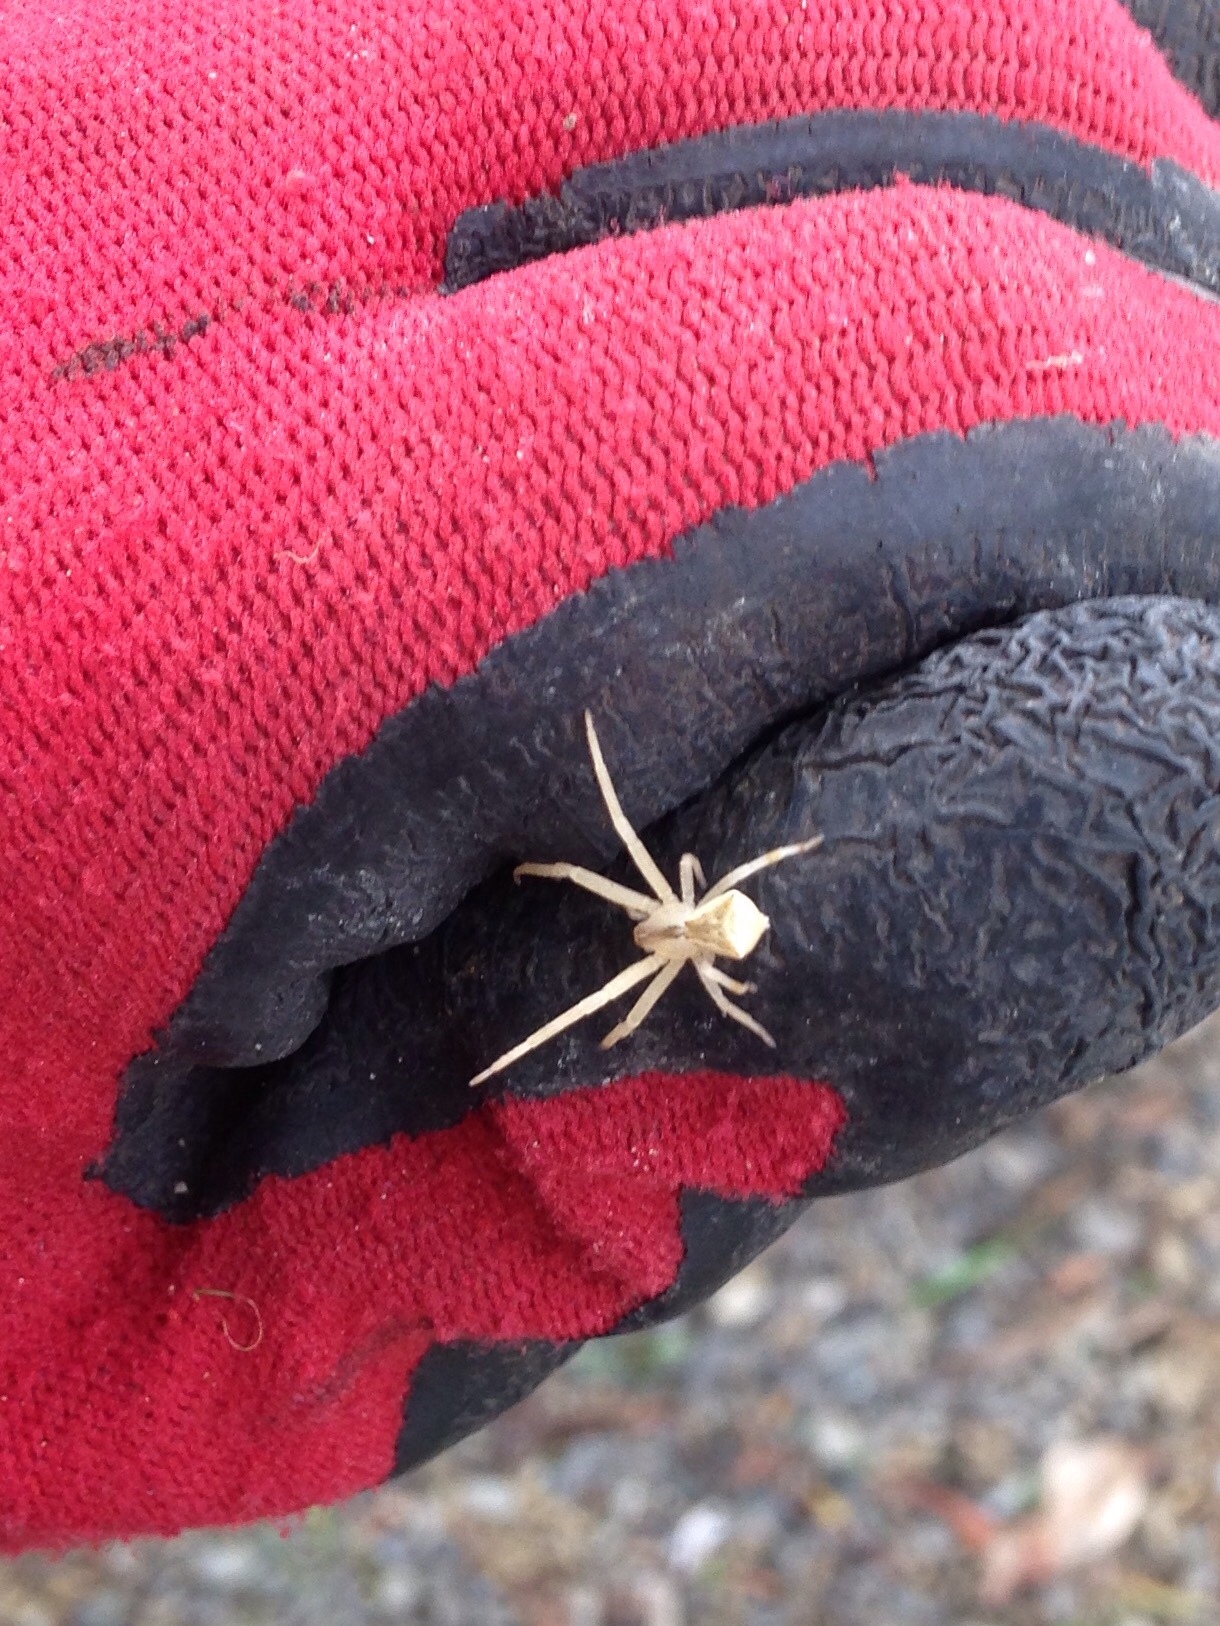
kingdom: Animalia
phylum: Arthropoda
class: Arachnida
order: Araneae
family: Thomisidae
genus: Sidymella
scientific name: Sidymella trapezia
